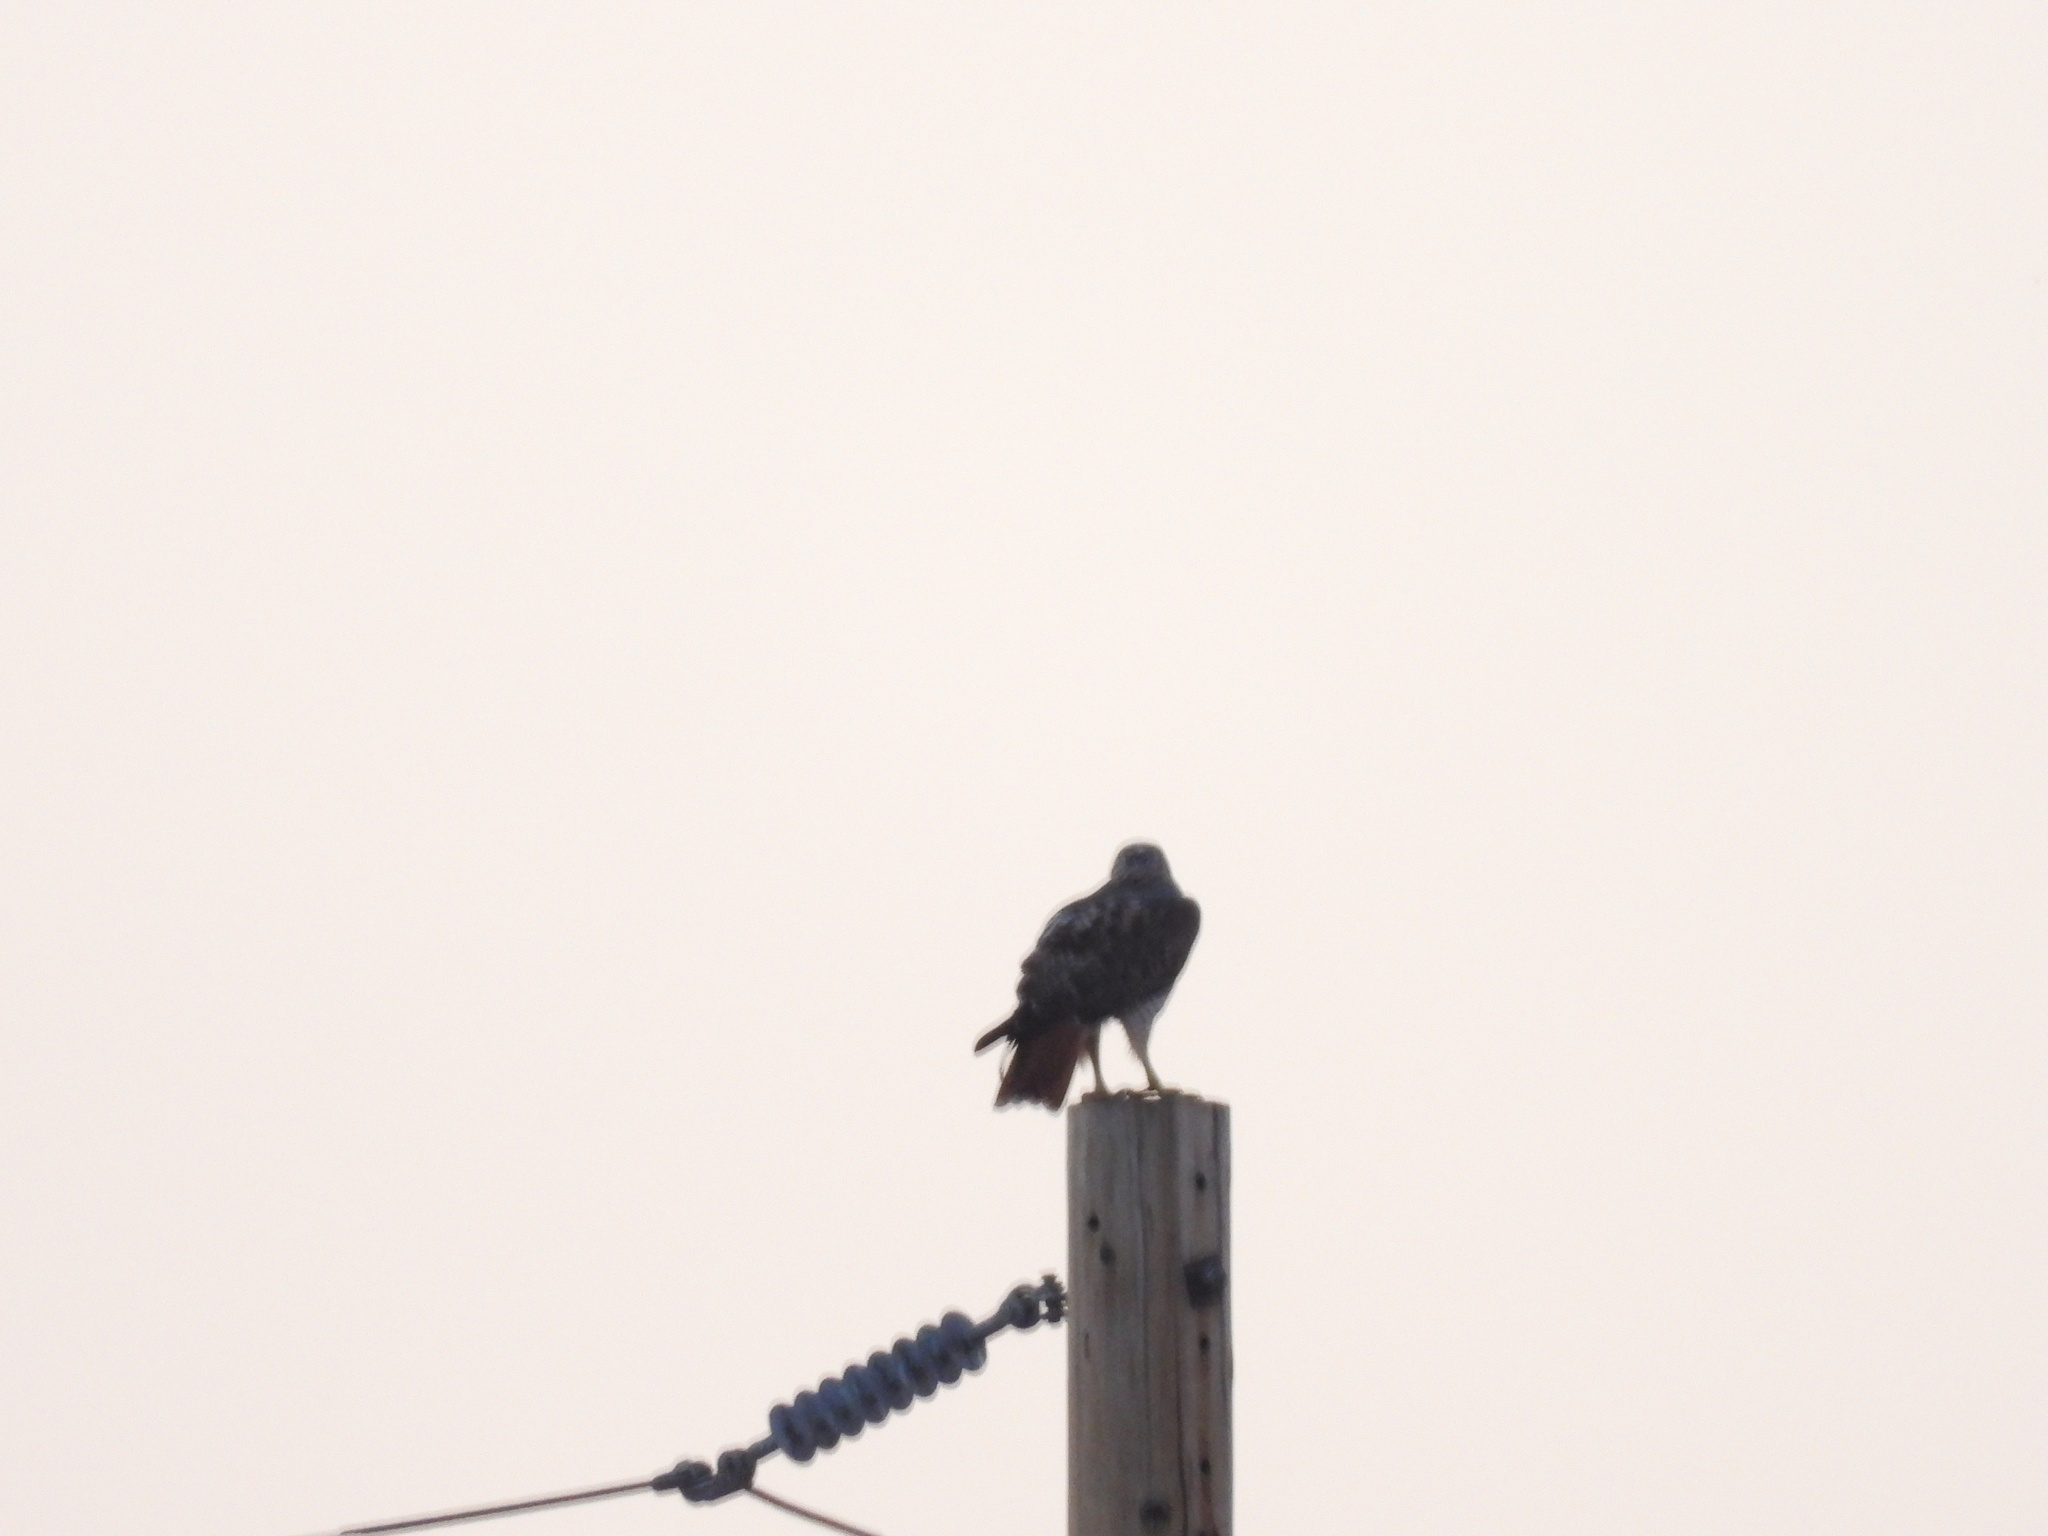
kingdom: Animalia
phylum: Chordata
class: Aves
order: Accipitriformes
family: Accipitridae
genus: Buteo
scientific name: Buteo jamaicensis
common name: Red-tailed hawk
